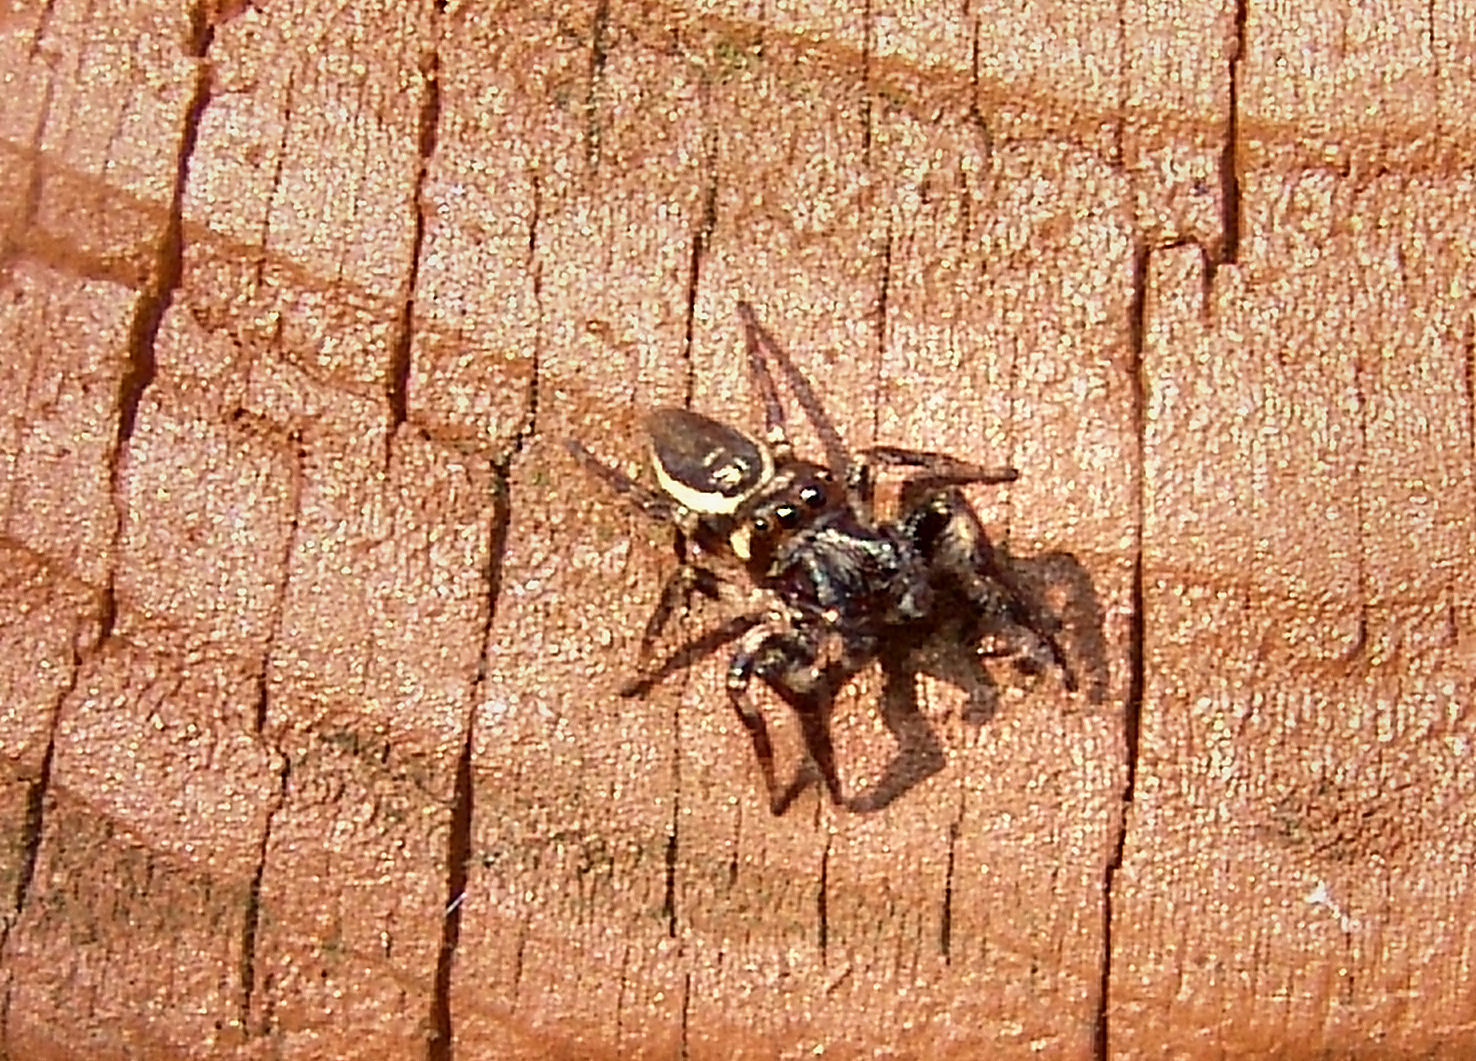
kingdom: Animalia
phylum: Arthropoda
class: Arachnida
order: Araneae
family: Salticidae
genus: Eris
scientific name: Eris militaris
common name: Bronze jumper
